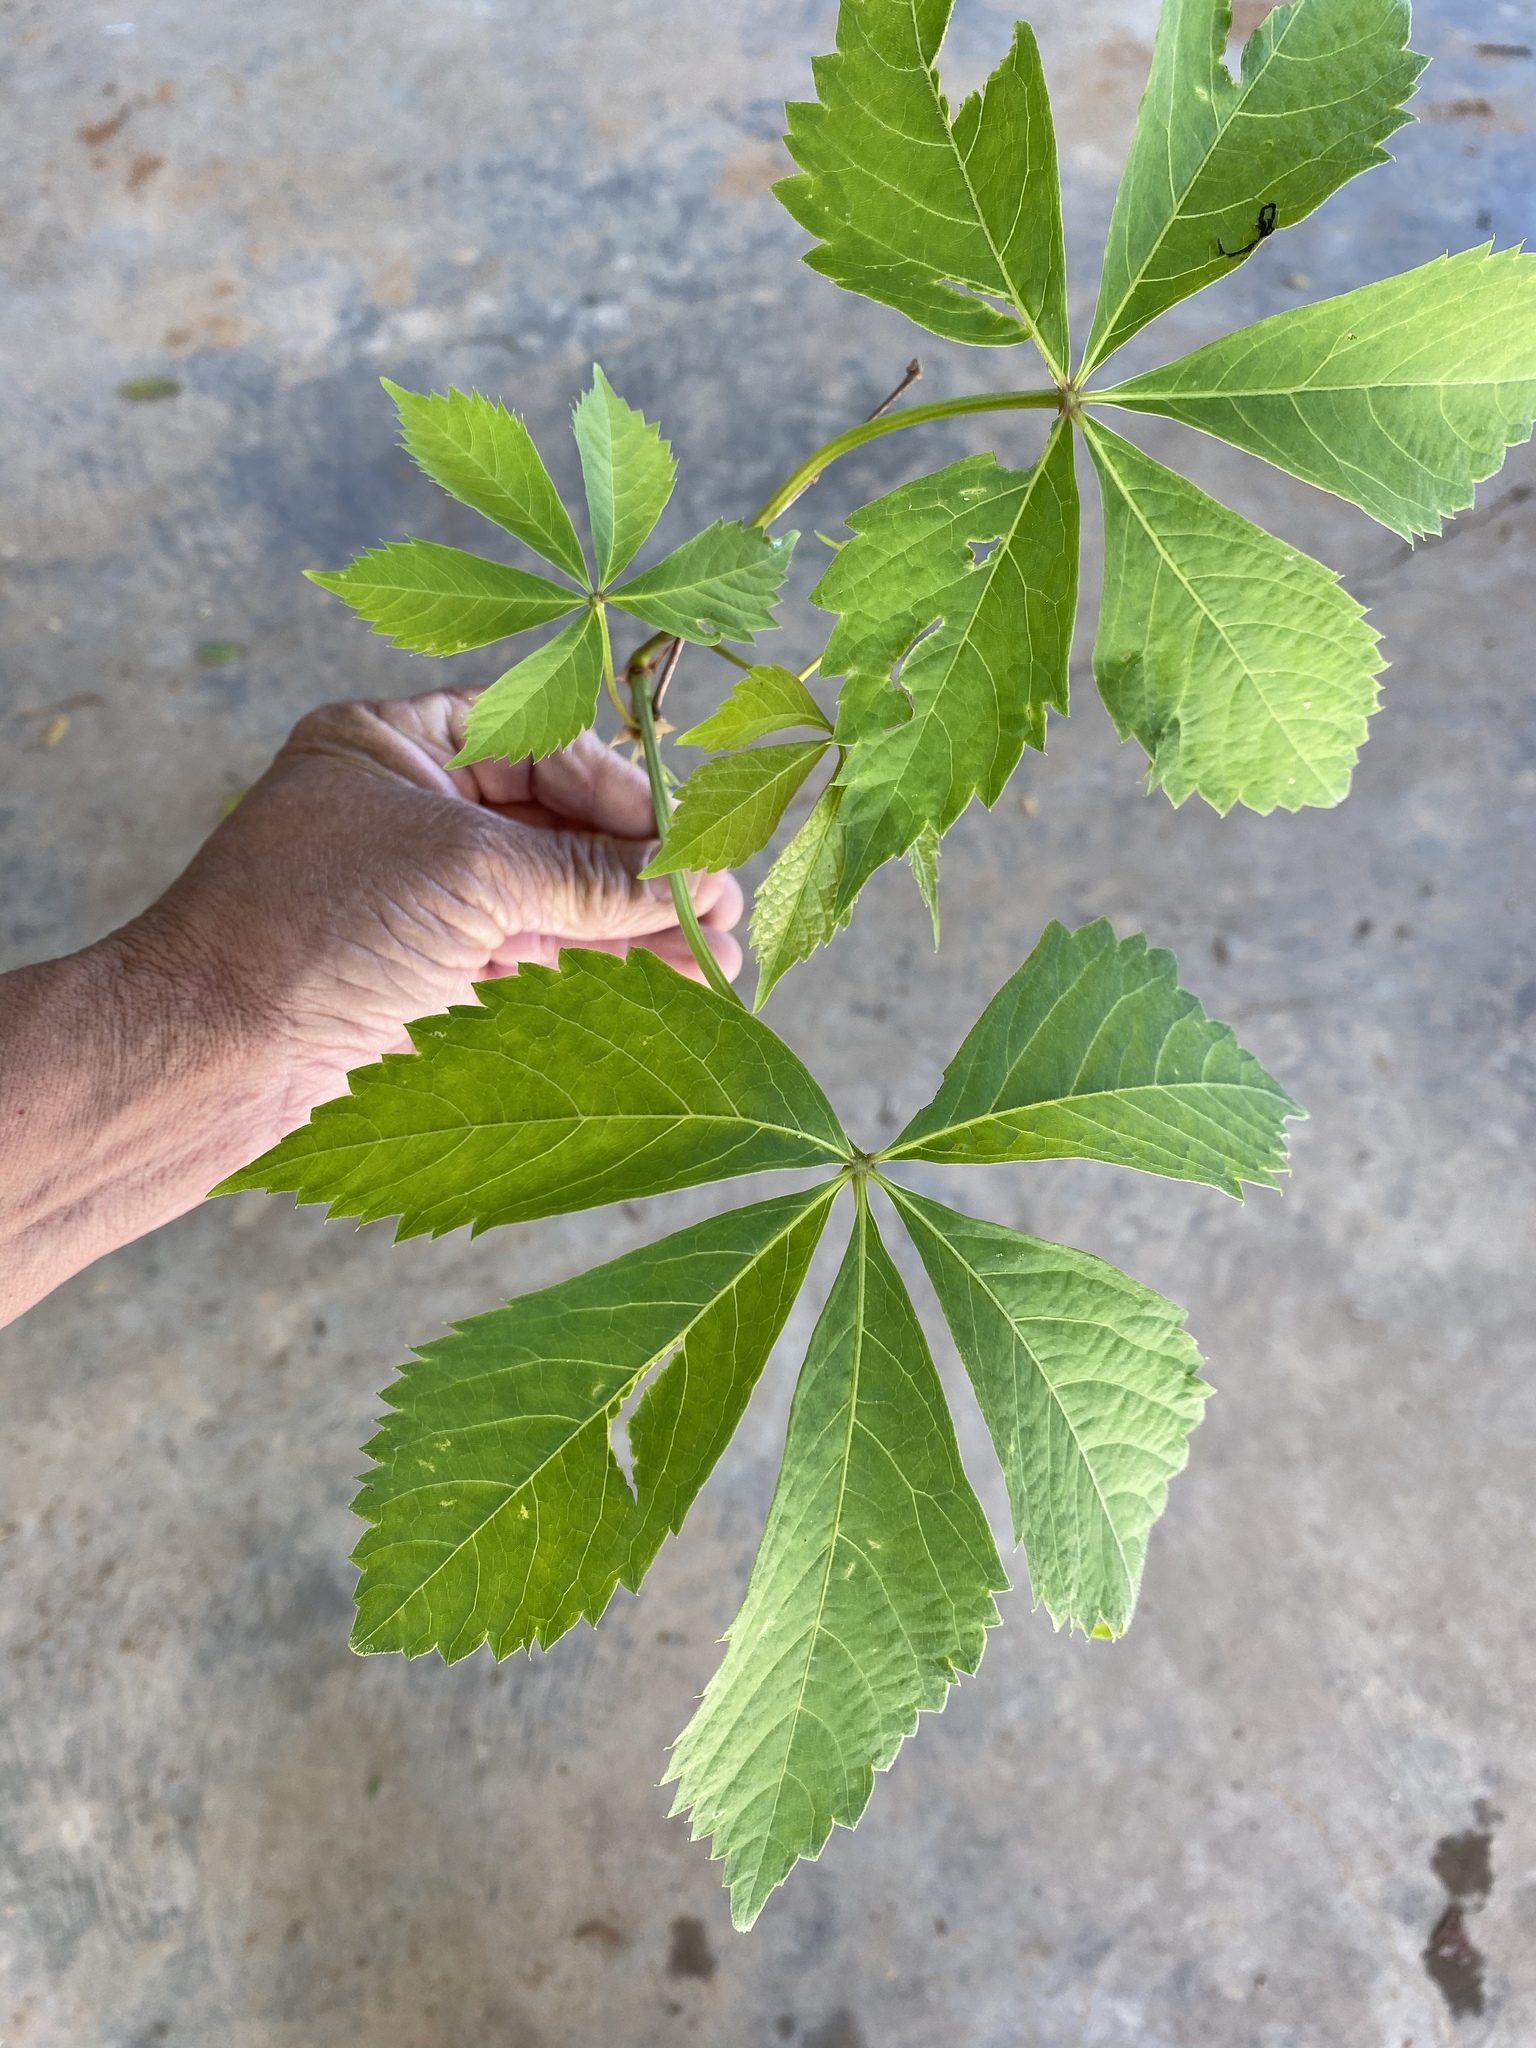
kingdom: Plantae
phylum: Tracheophyta
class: Magnoliopsida
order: Vitales
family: Vitaceae
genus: Parthenocissus
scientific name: Parthenocissus quinquefolia
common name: Virginia-creeper
